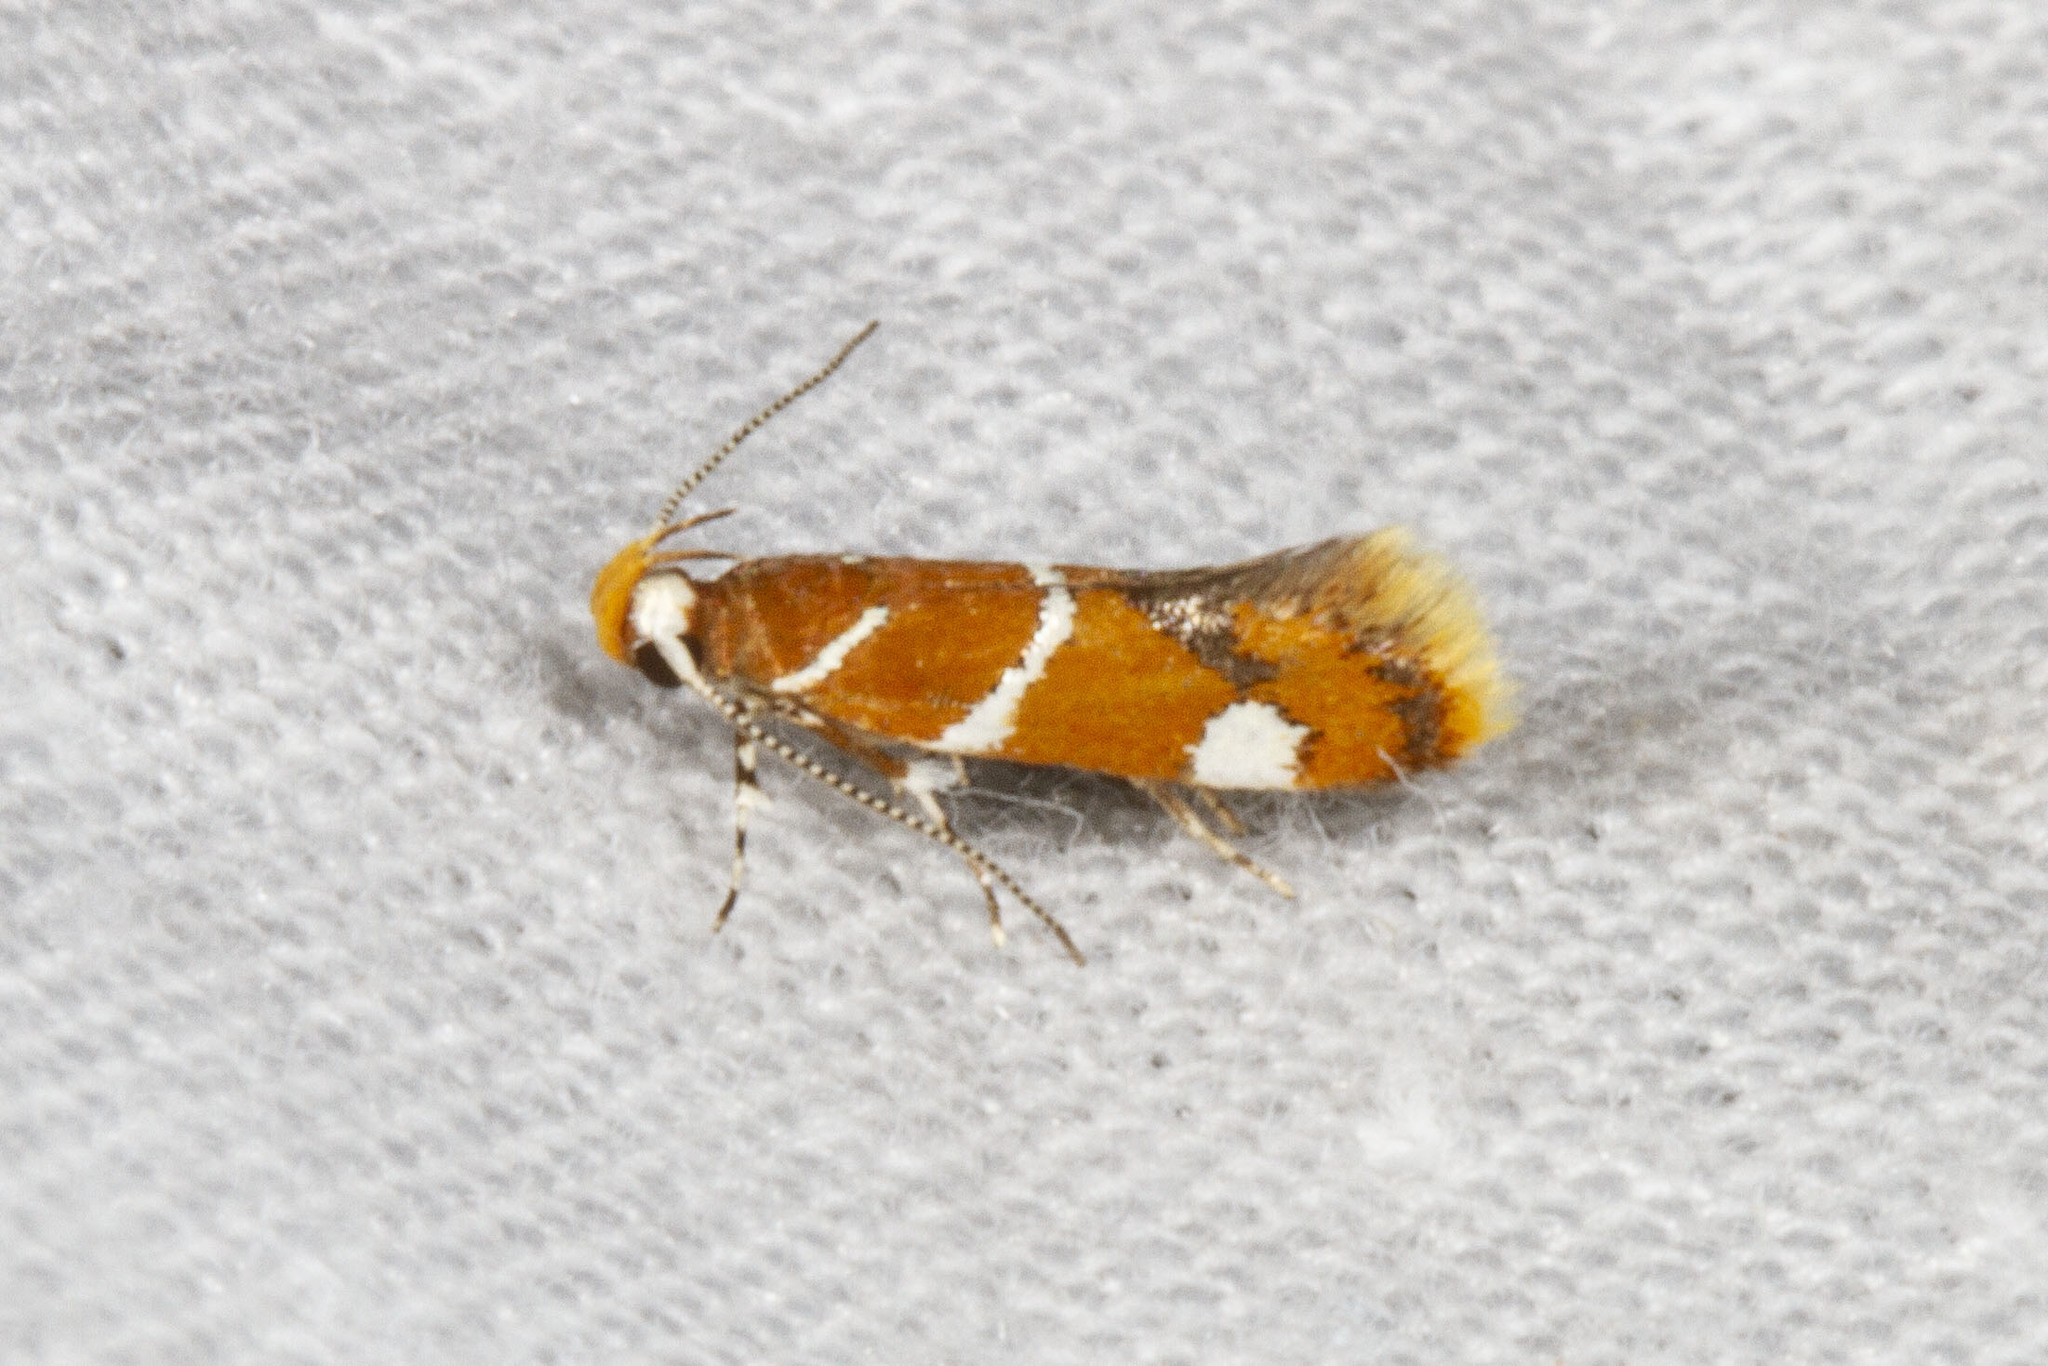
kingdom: Animalia
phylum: Arthropoda
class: Insecta
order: Lepidoptera
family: Oecophoridae
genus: Promalactis
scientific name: Promalactis suzukiella
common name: Moth
